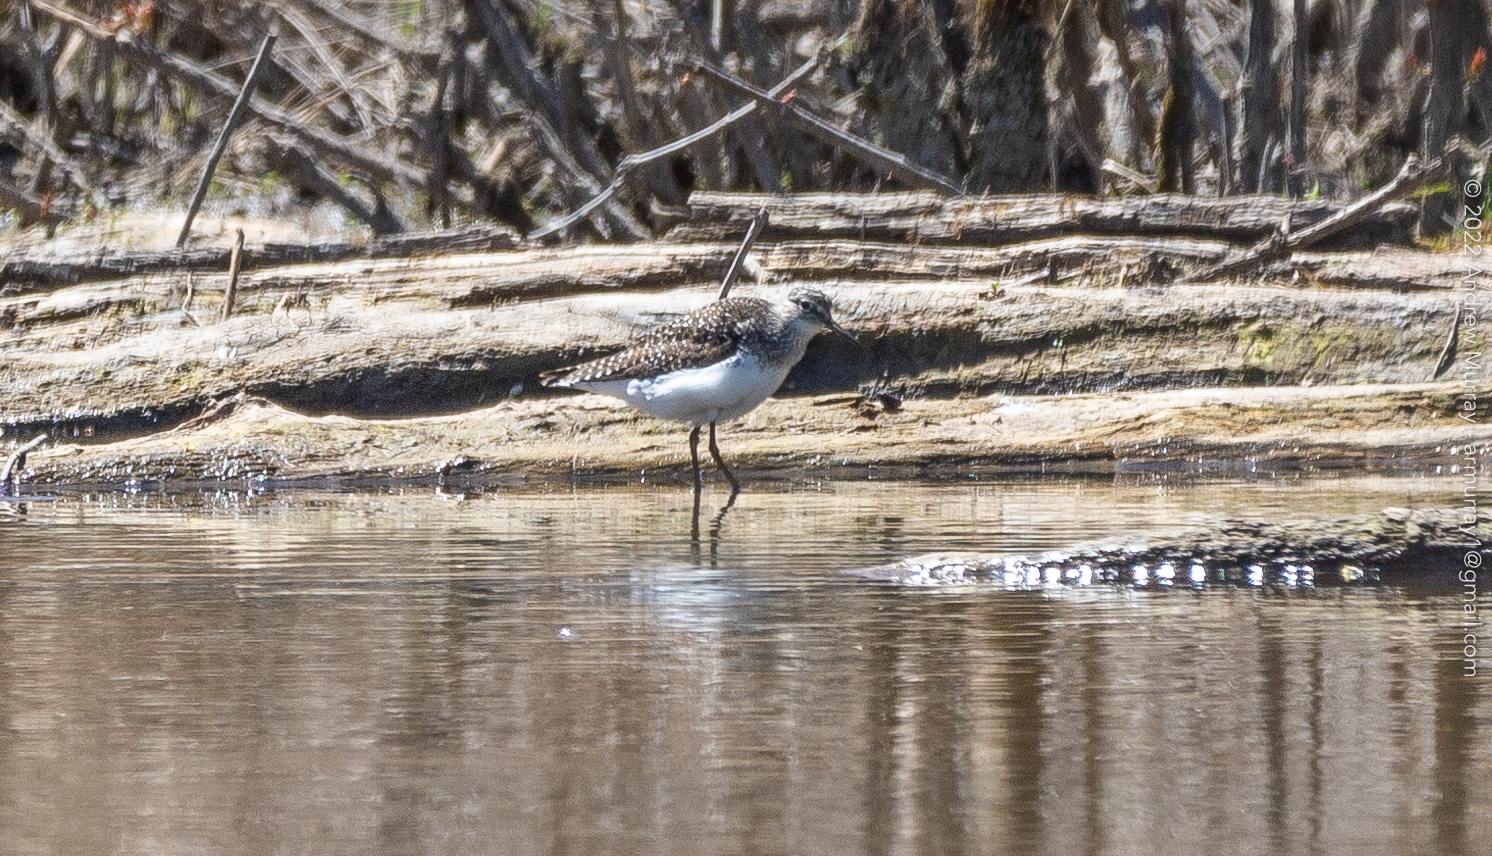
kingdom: Animalia
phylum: Chordata
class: Aves
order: Charadriiformes
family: Scolopacidae
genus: Tringa
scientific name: Tringa solitaria
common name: Solitary sandpiper
